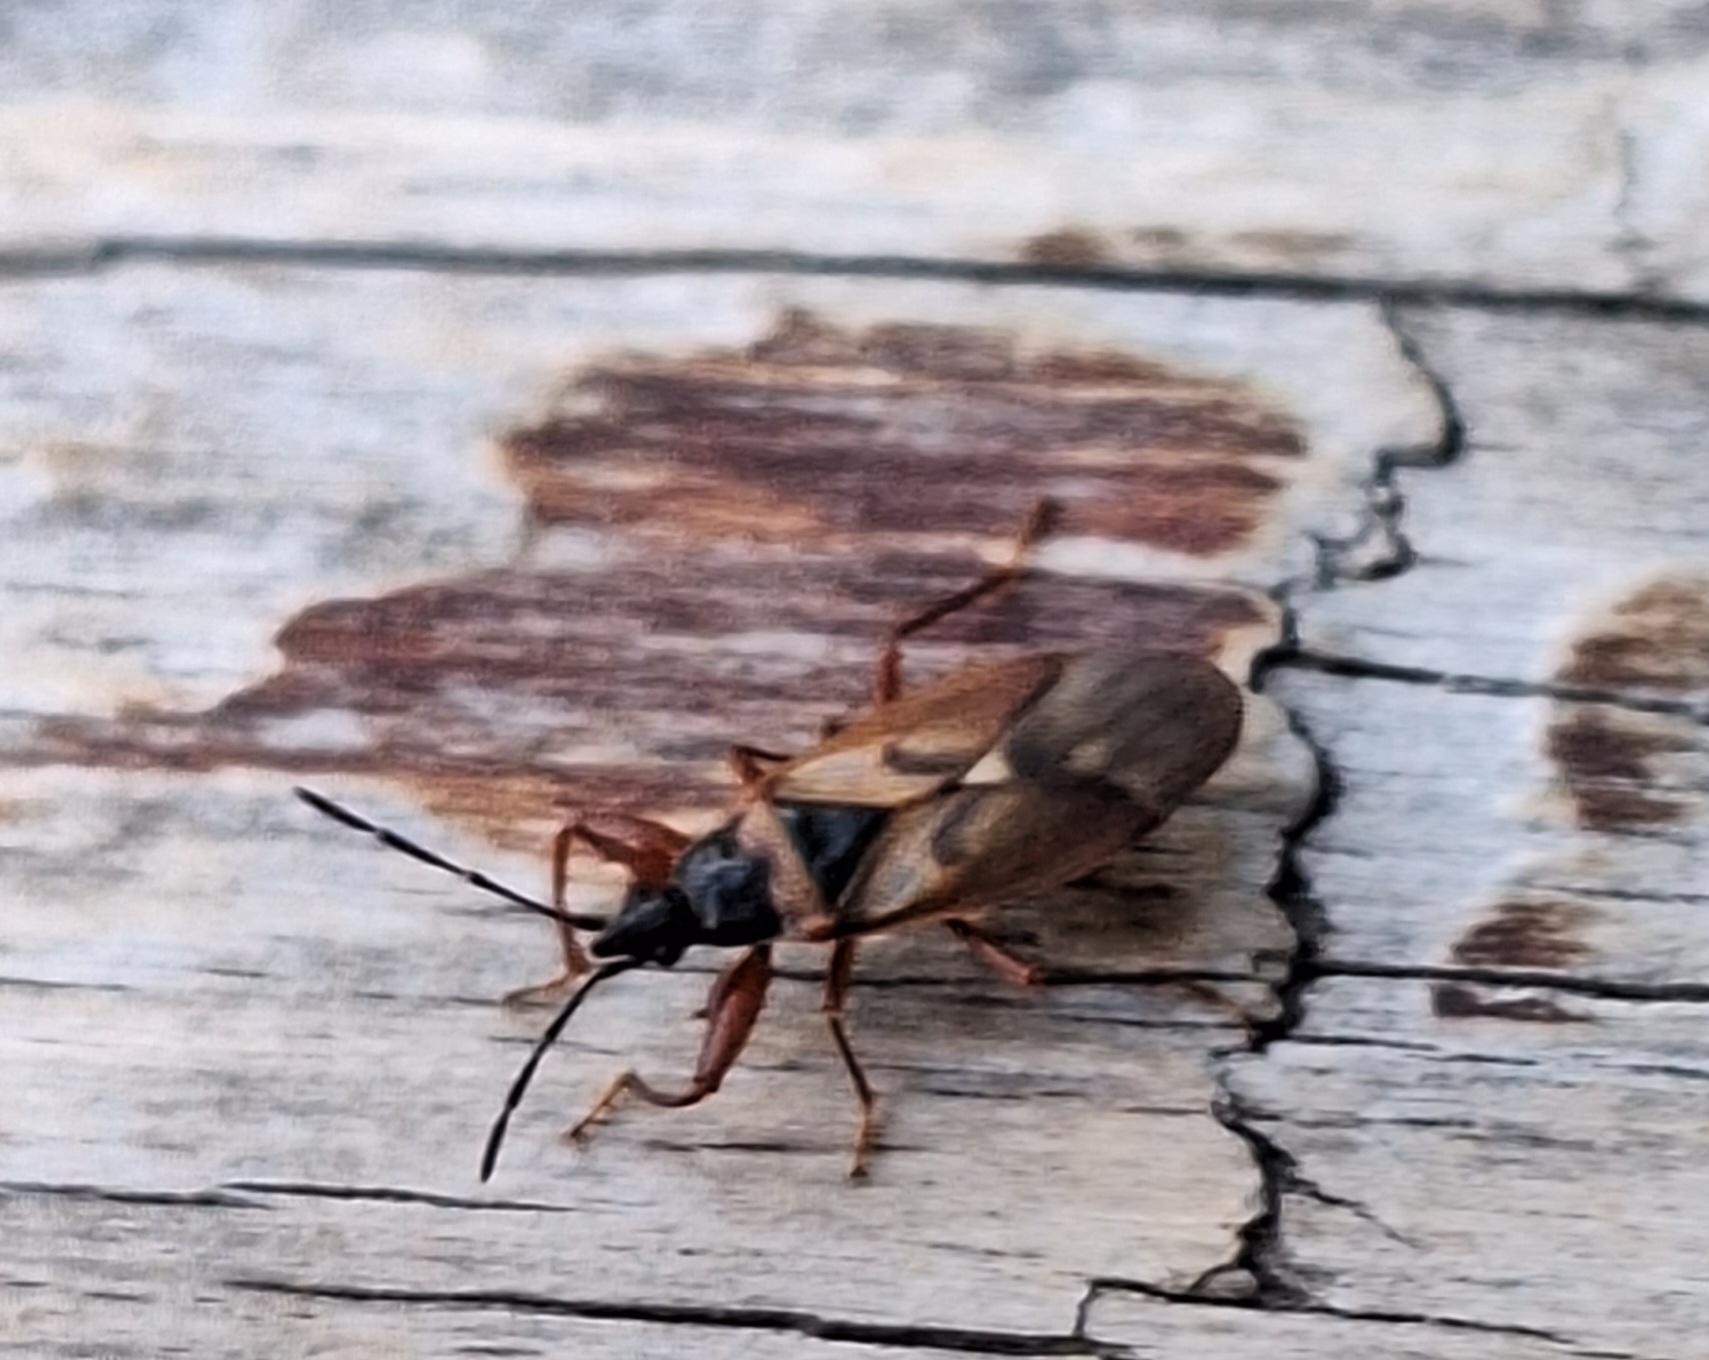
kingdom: Animalia
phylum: Arthropoda
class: Insecta
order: Hemiptera
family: Rhyparochromidae
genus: Gastrodes
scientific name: Gastrodes abietum
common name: Spruce cone bug
